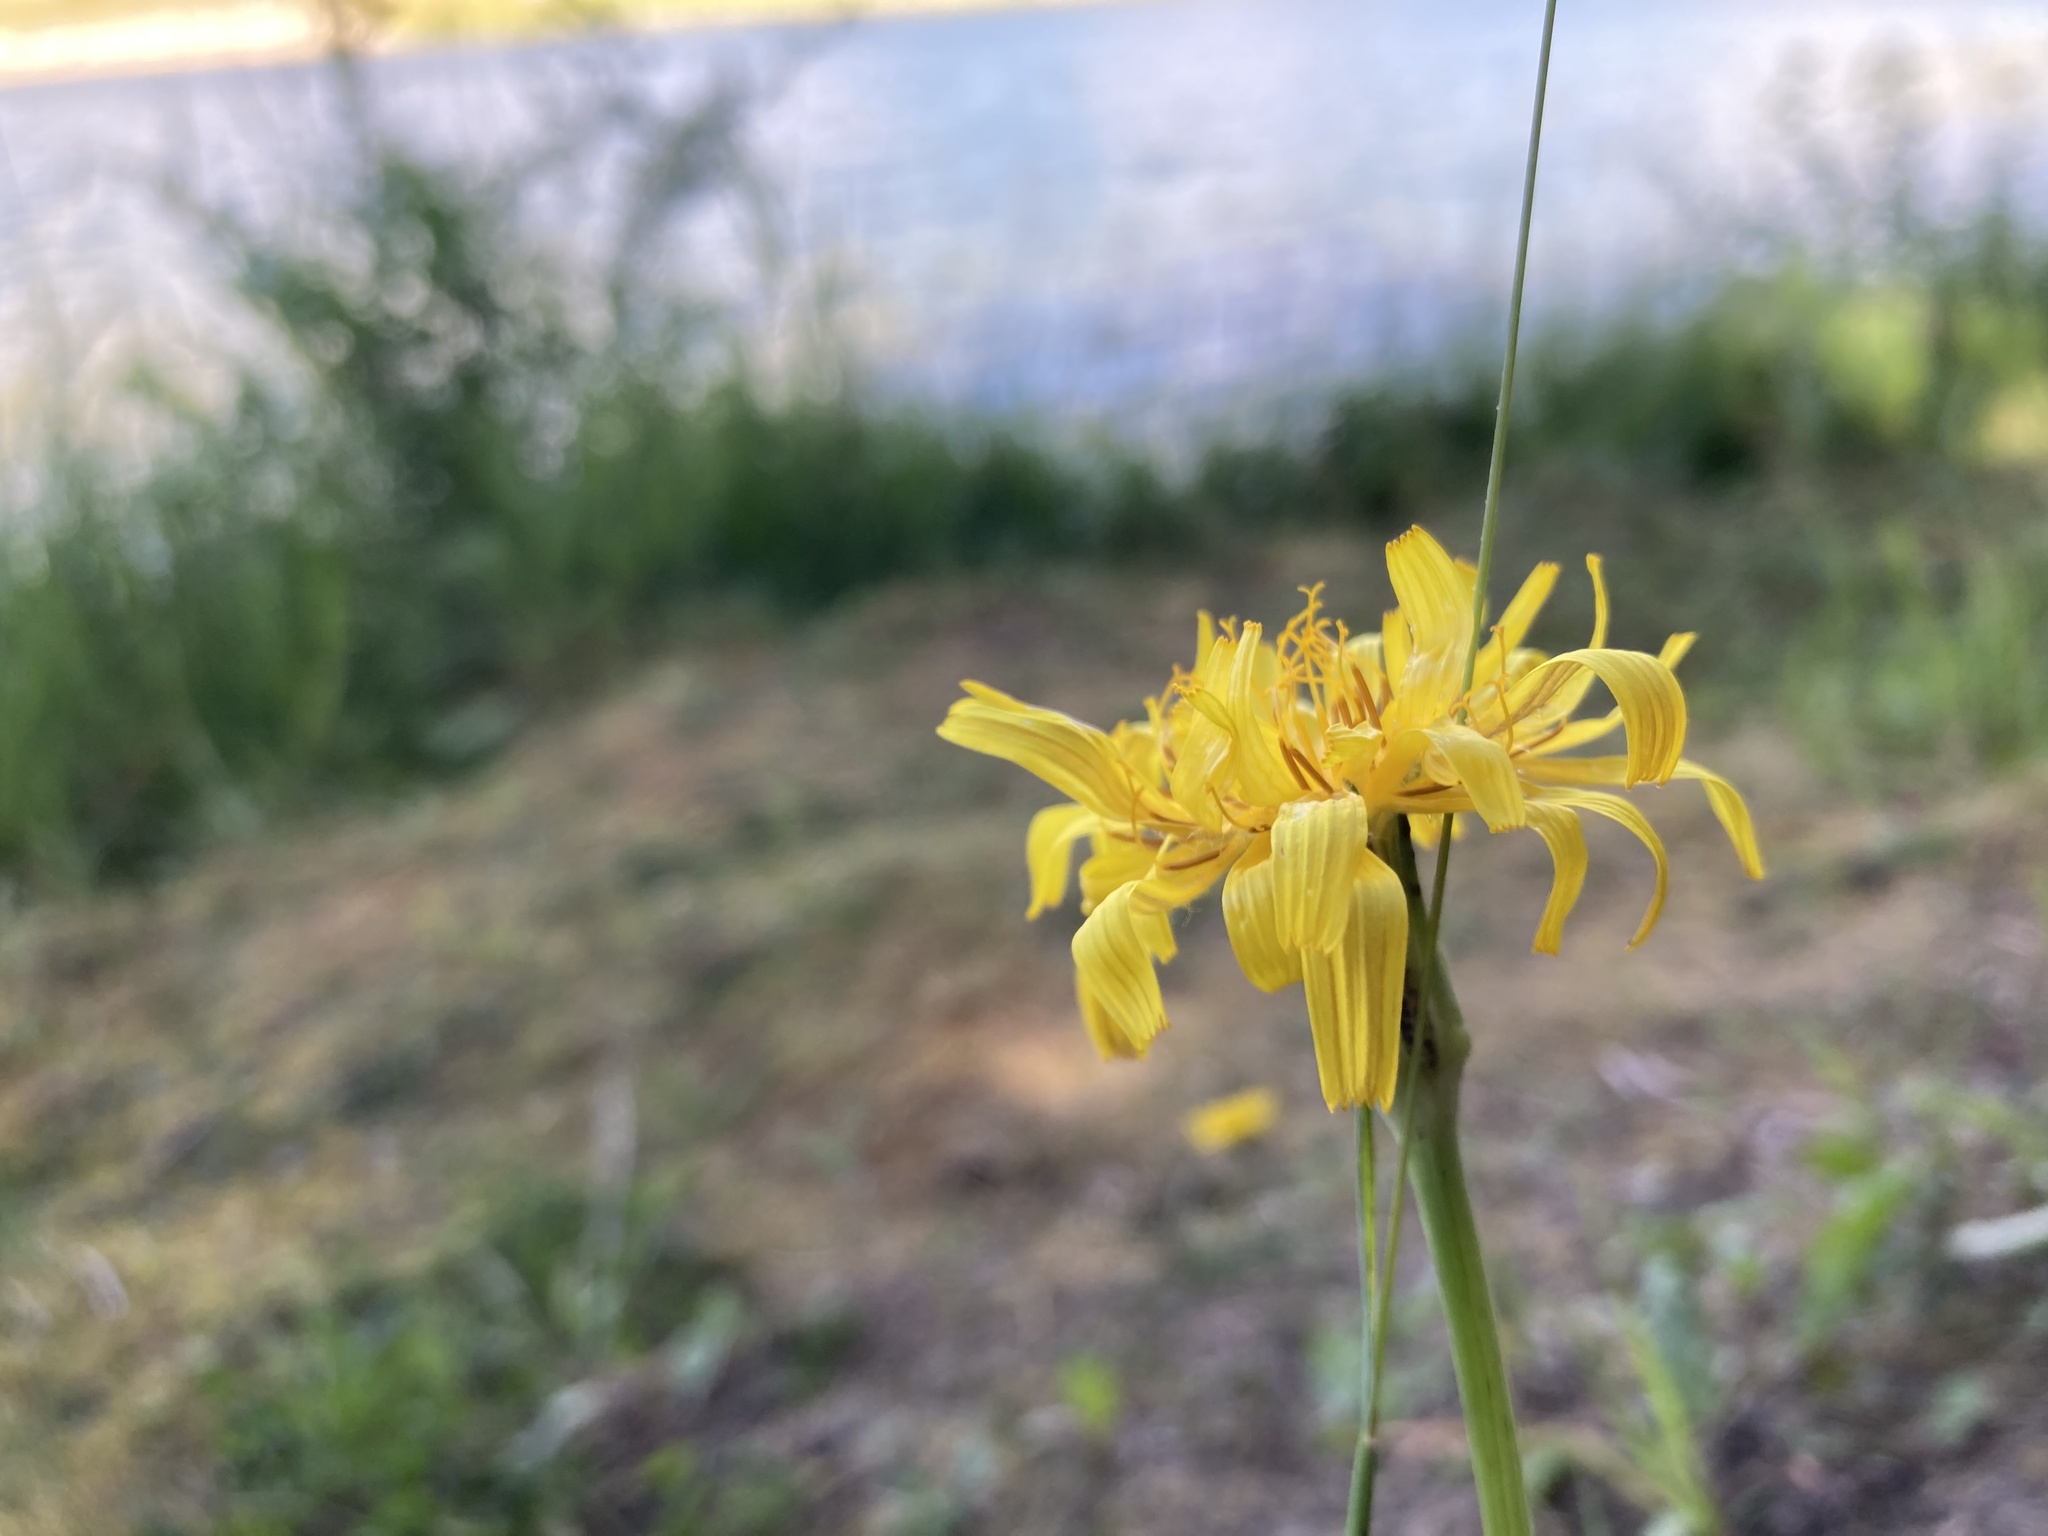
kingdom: Plantae
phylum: Tracheophyta
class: Magnoliopsida
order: Asterales
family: Asteraceae
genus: Agoseris
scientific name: Agoseris glauca
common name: Prairie agoseris
